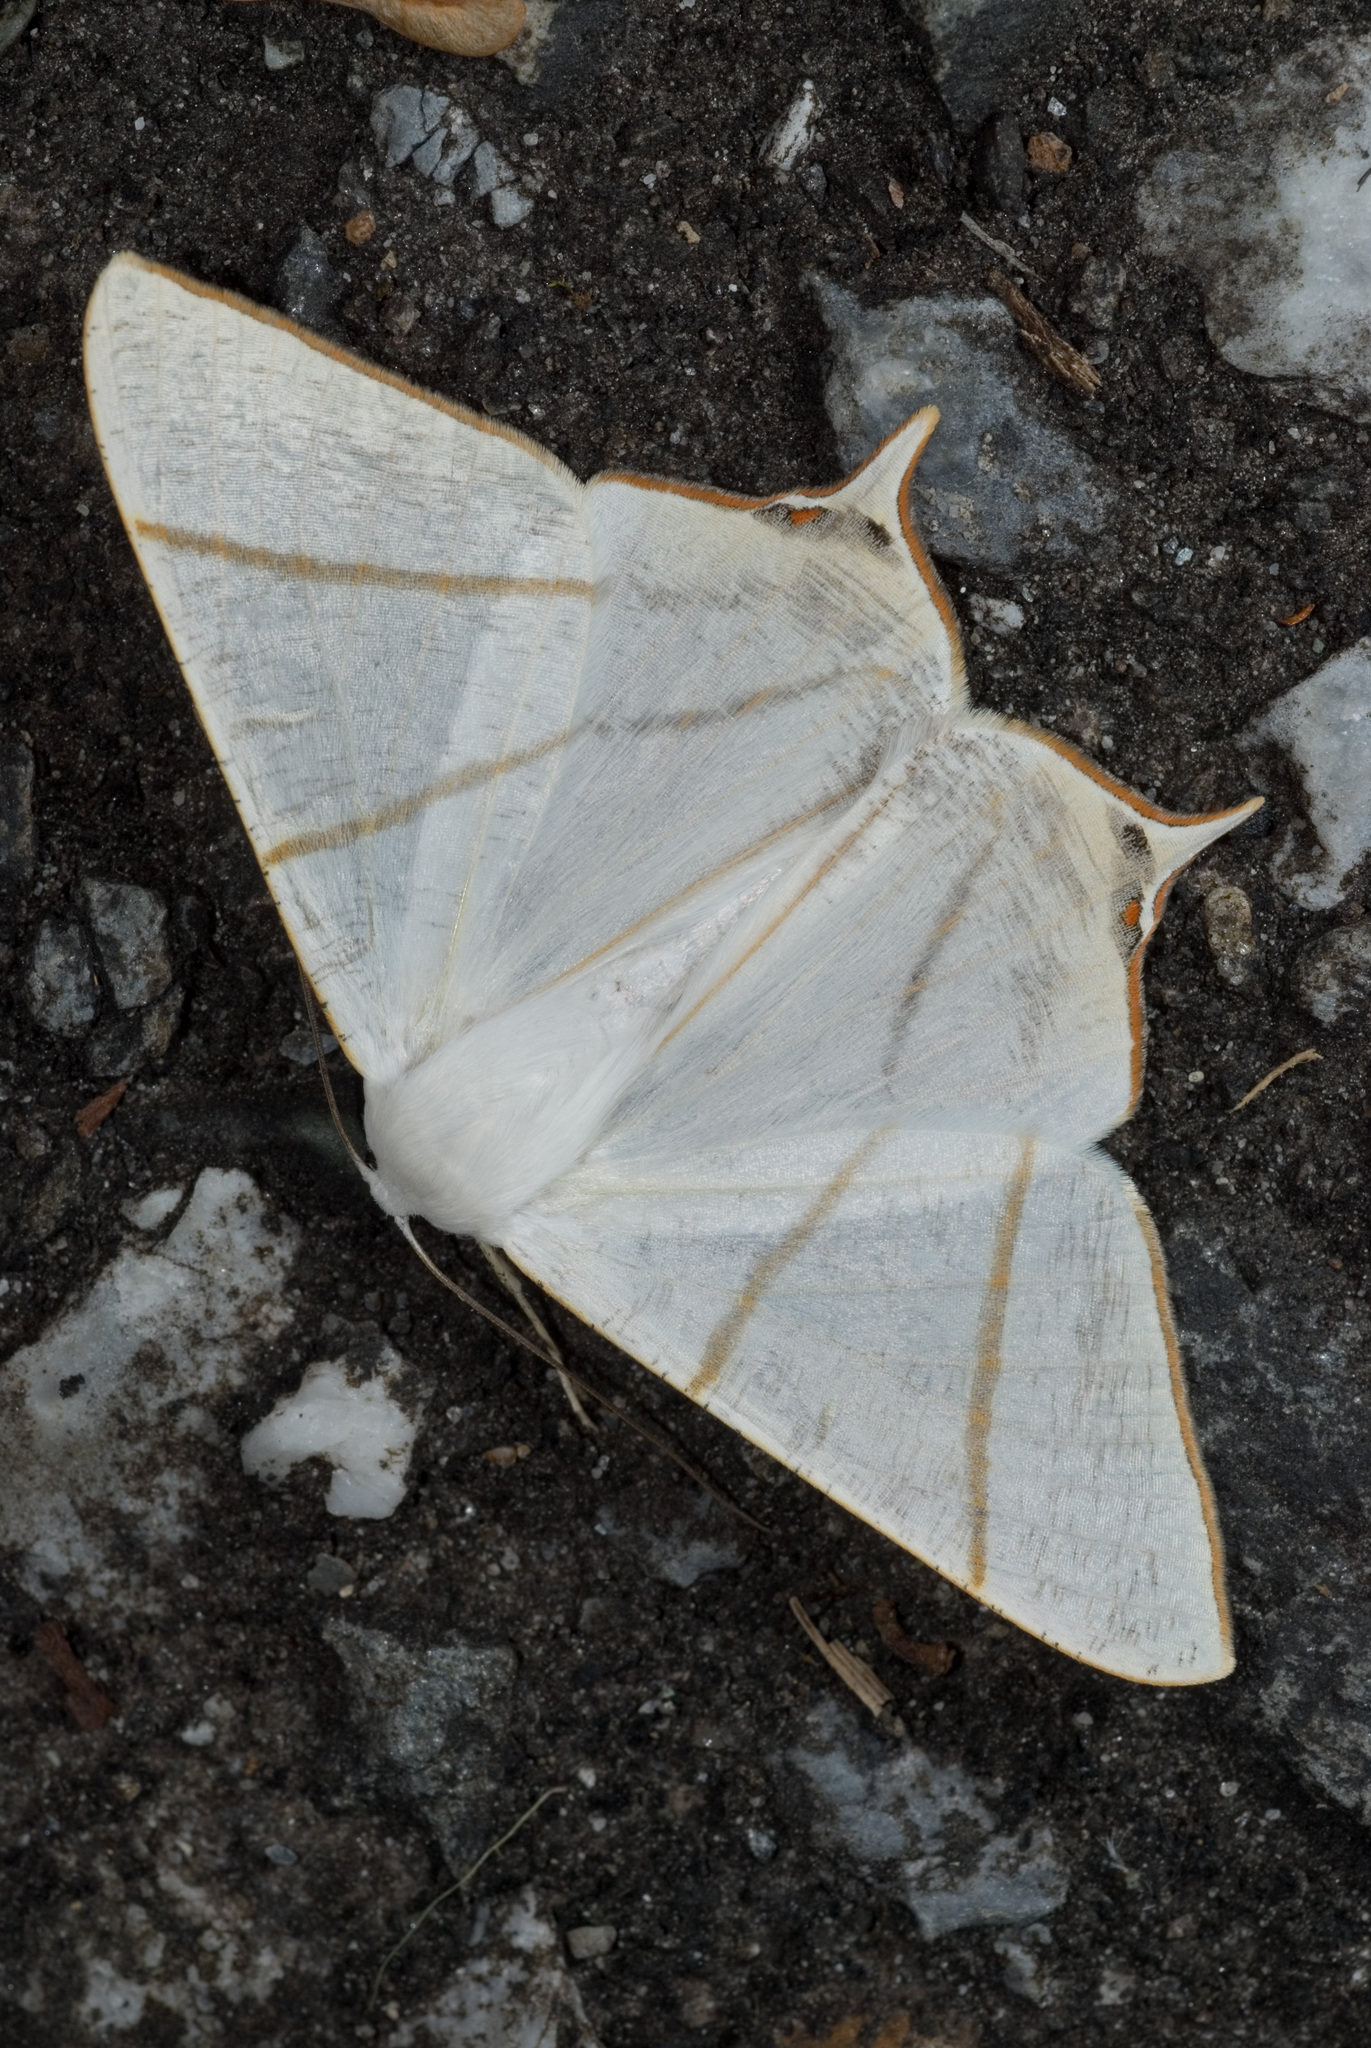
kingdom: Animalia
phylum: Arthropoda
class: Insecta
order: Lepidoptera
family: Geometridae
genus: Ourapteryx
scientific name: Ourapteryx changi
